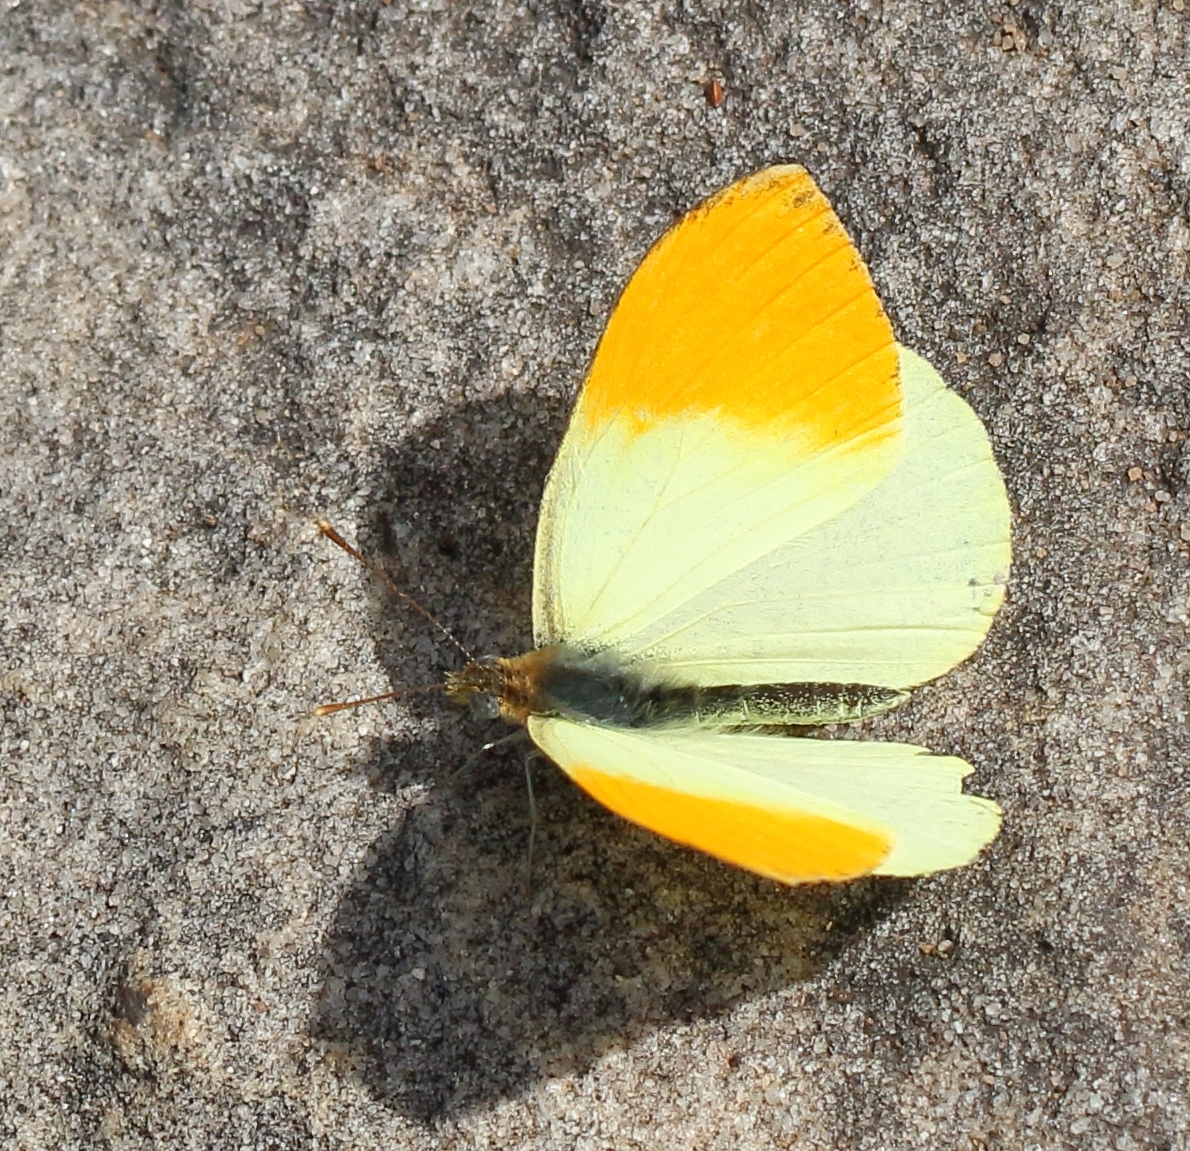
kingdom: Animalia
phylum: Arthropoda
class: Insecta
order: Lepidoptera
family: Pieridae
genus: Colotis
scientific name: Colotis auxo
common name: Sulphur orange tip
